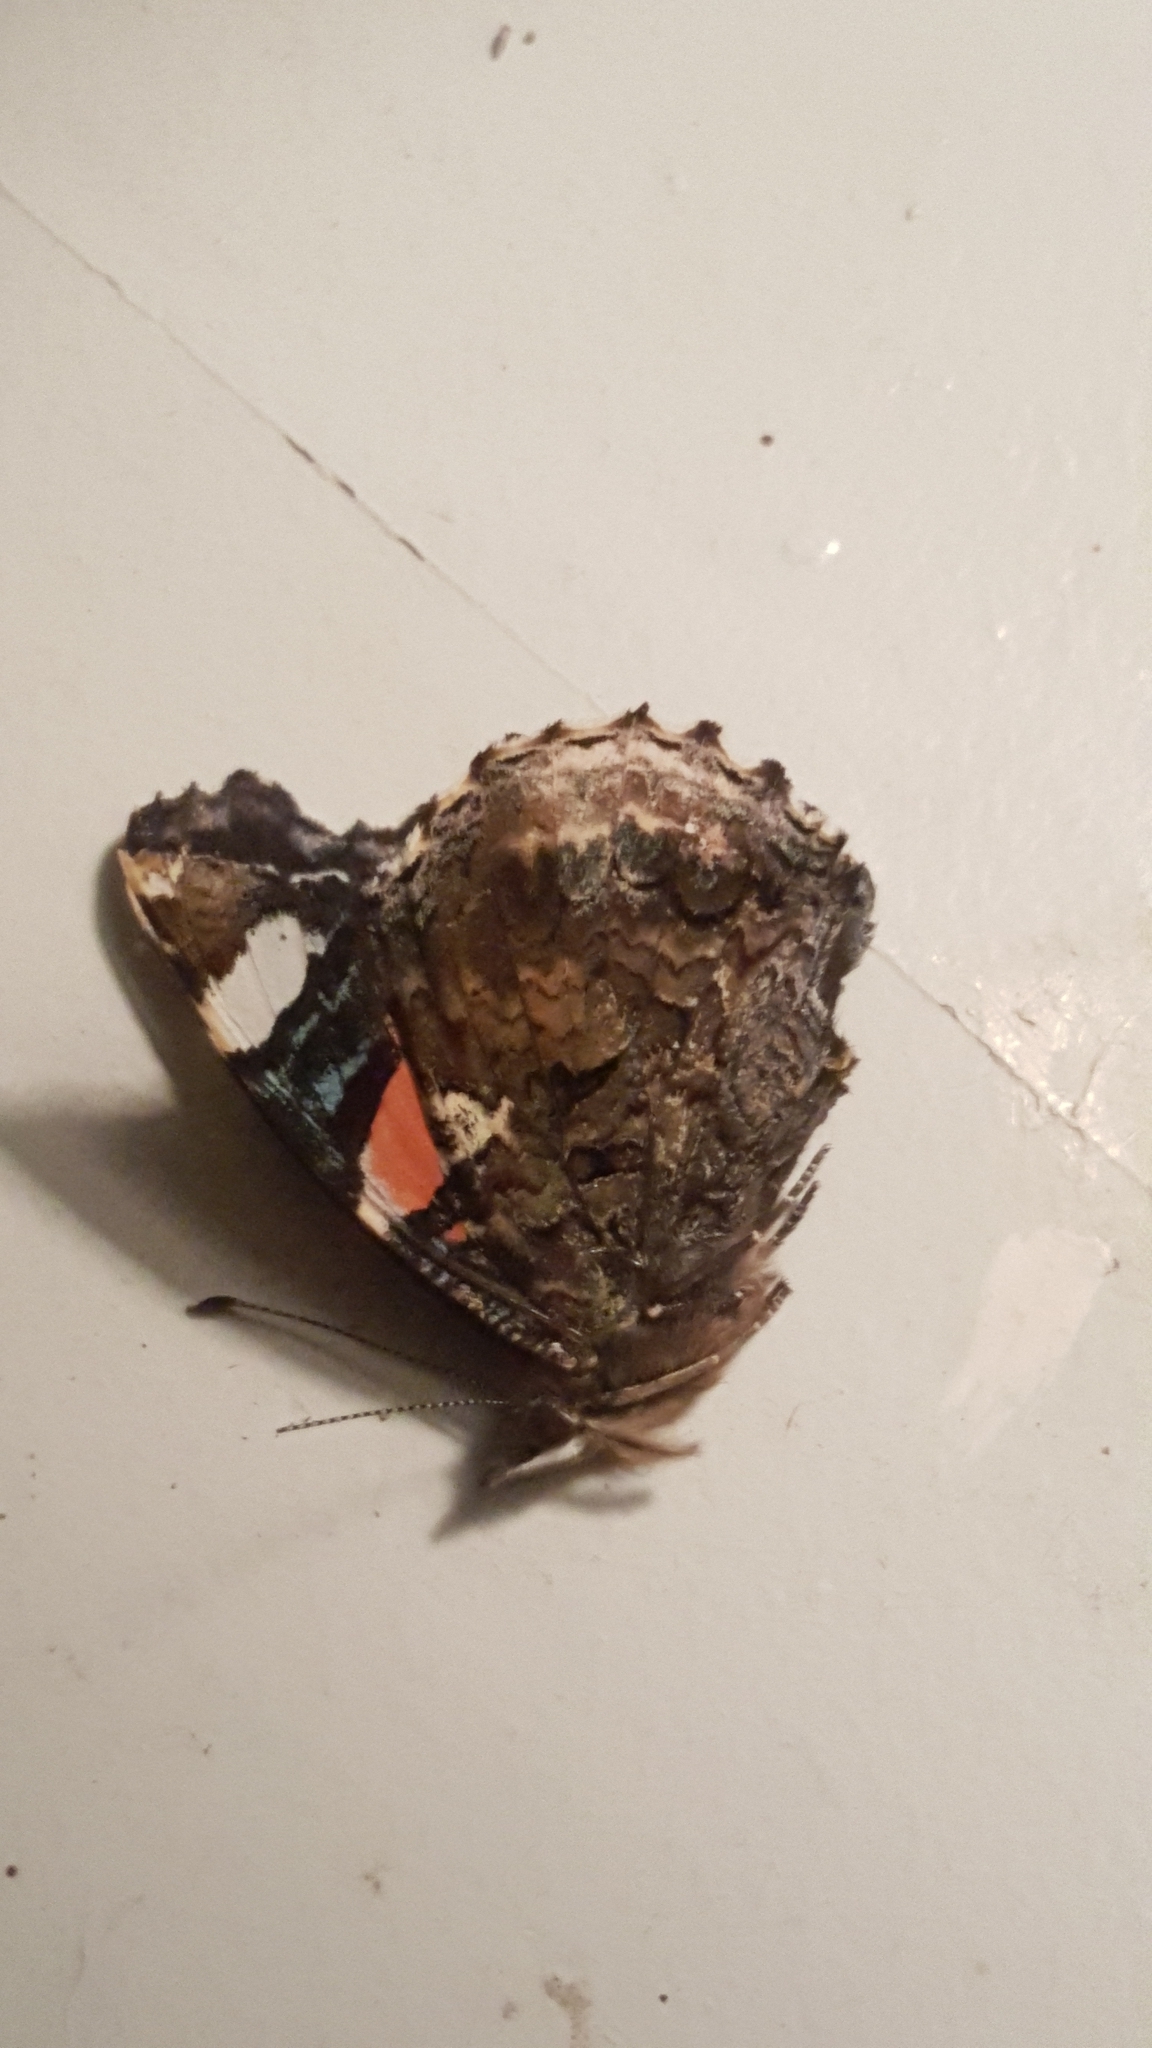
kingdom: Animalia
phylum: Arthropoda
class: Insecta
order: Lepidoptera
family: Nymphalidae
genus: Vanessa
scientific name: Vanessa atalanta
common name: Red admiral
